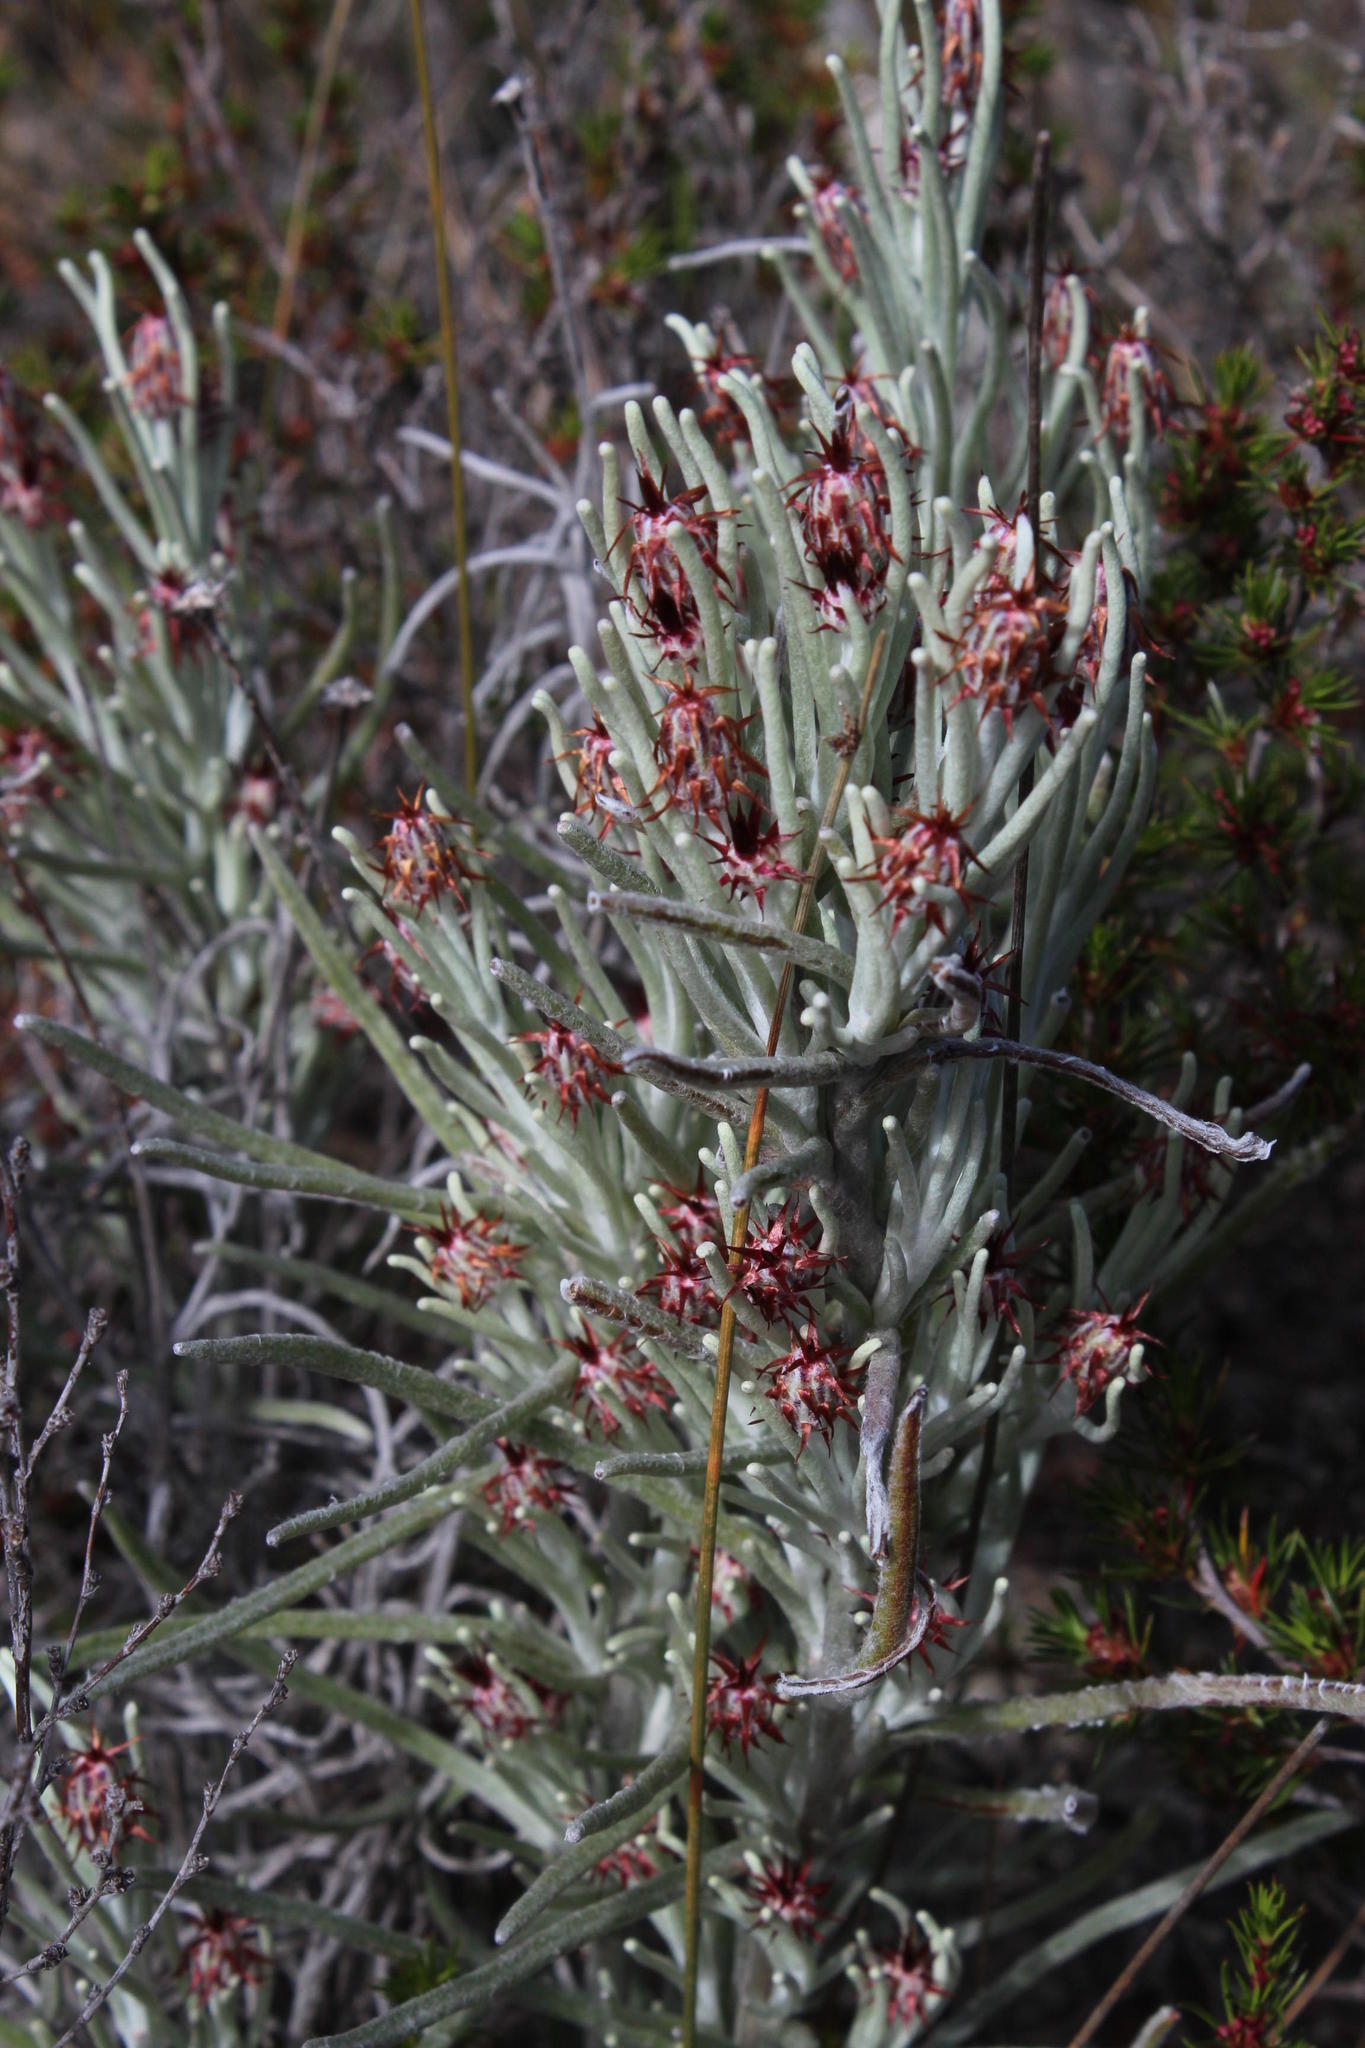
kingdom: Plantae
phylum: Tracheophyta
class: Magnoliopsida
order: Asterales
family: Asteraceae
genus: Syncarpha
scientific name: Syncarpha gnaphaloides
